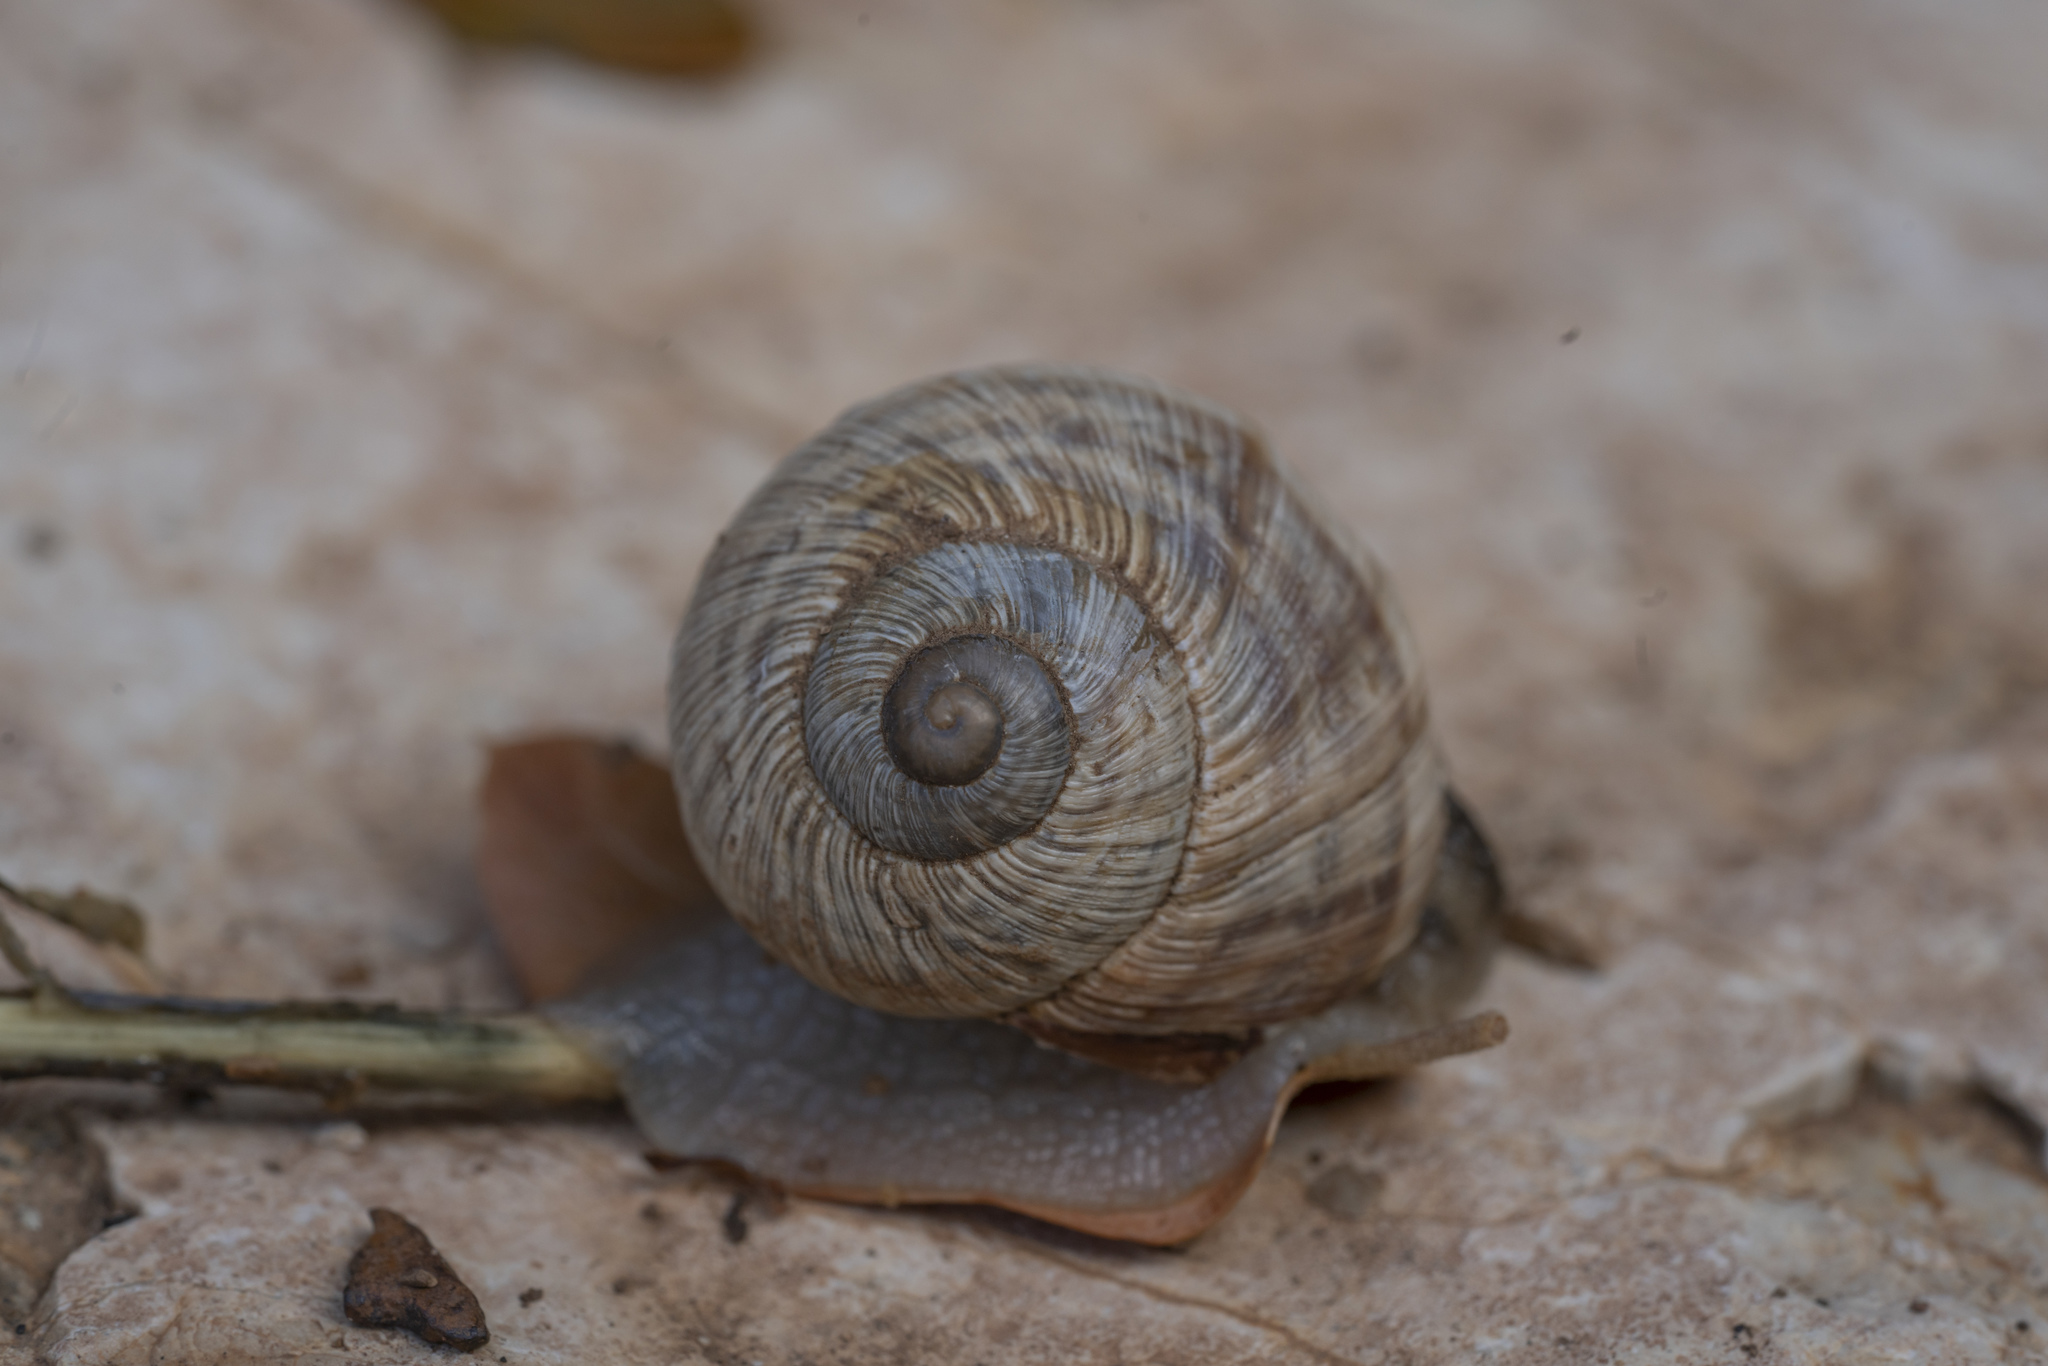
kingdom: Animalia
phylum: Mollusca
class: Gastropoda
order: Stylommatophora
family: Helicidae
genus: Helix
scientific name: Helix nucula
